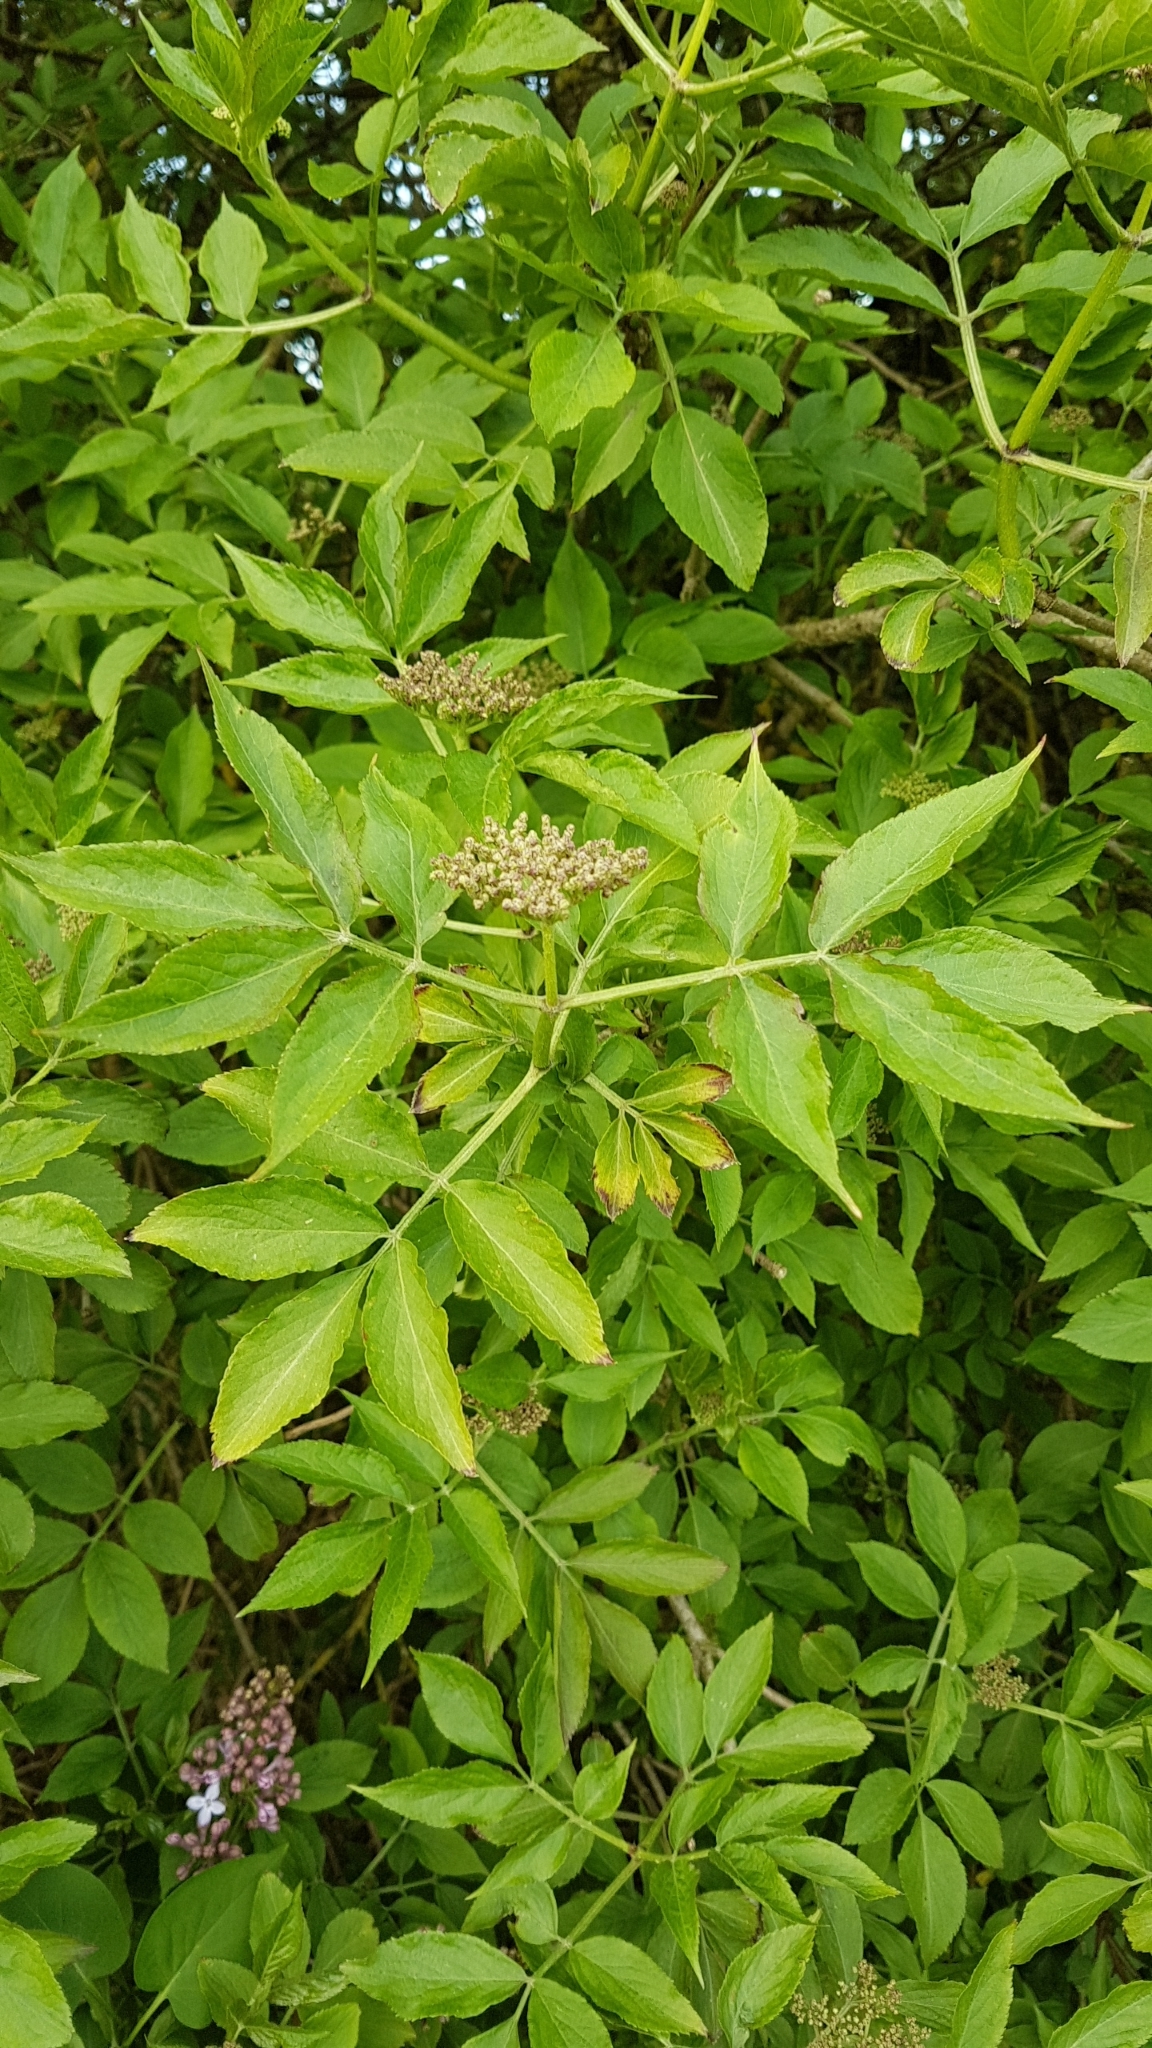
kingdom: Plantae
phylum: Tracheophyta
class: Magnoliopsida
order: Dipsacales
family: Viburnaceae
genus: Sambucus
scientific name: Sambucus nigra
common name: Elder
